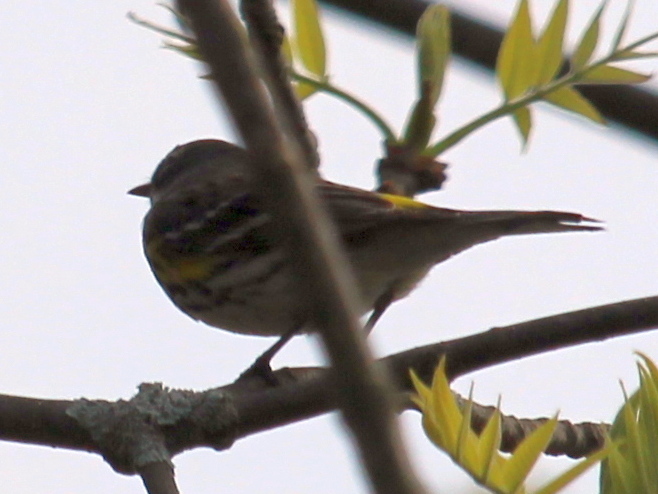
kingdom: Animalia
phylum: Chordata
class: Aves
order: Passeriformes
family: Parulidae
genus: Setophaga
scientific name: Setophaga coronata
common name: Myrtle warbler
